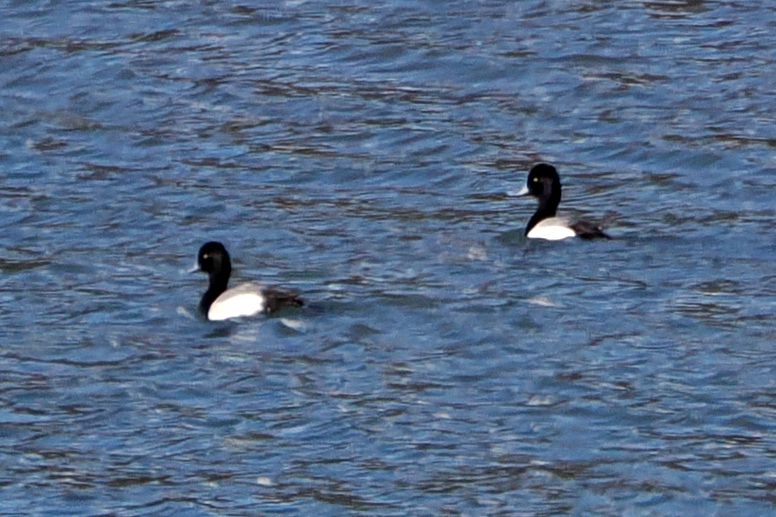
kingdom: Animalia
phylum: Chordata
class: Aves
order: Anseriformes
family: Anatidae
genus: Aythya
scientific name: Aythya affinis
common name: Lesser scaup
